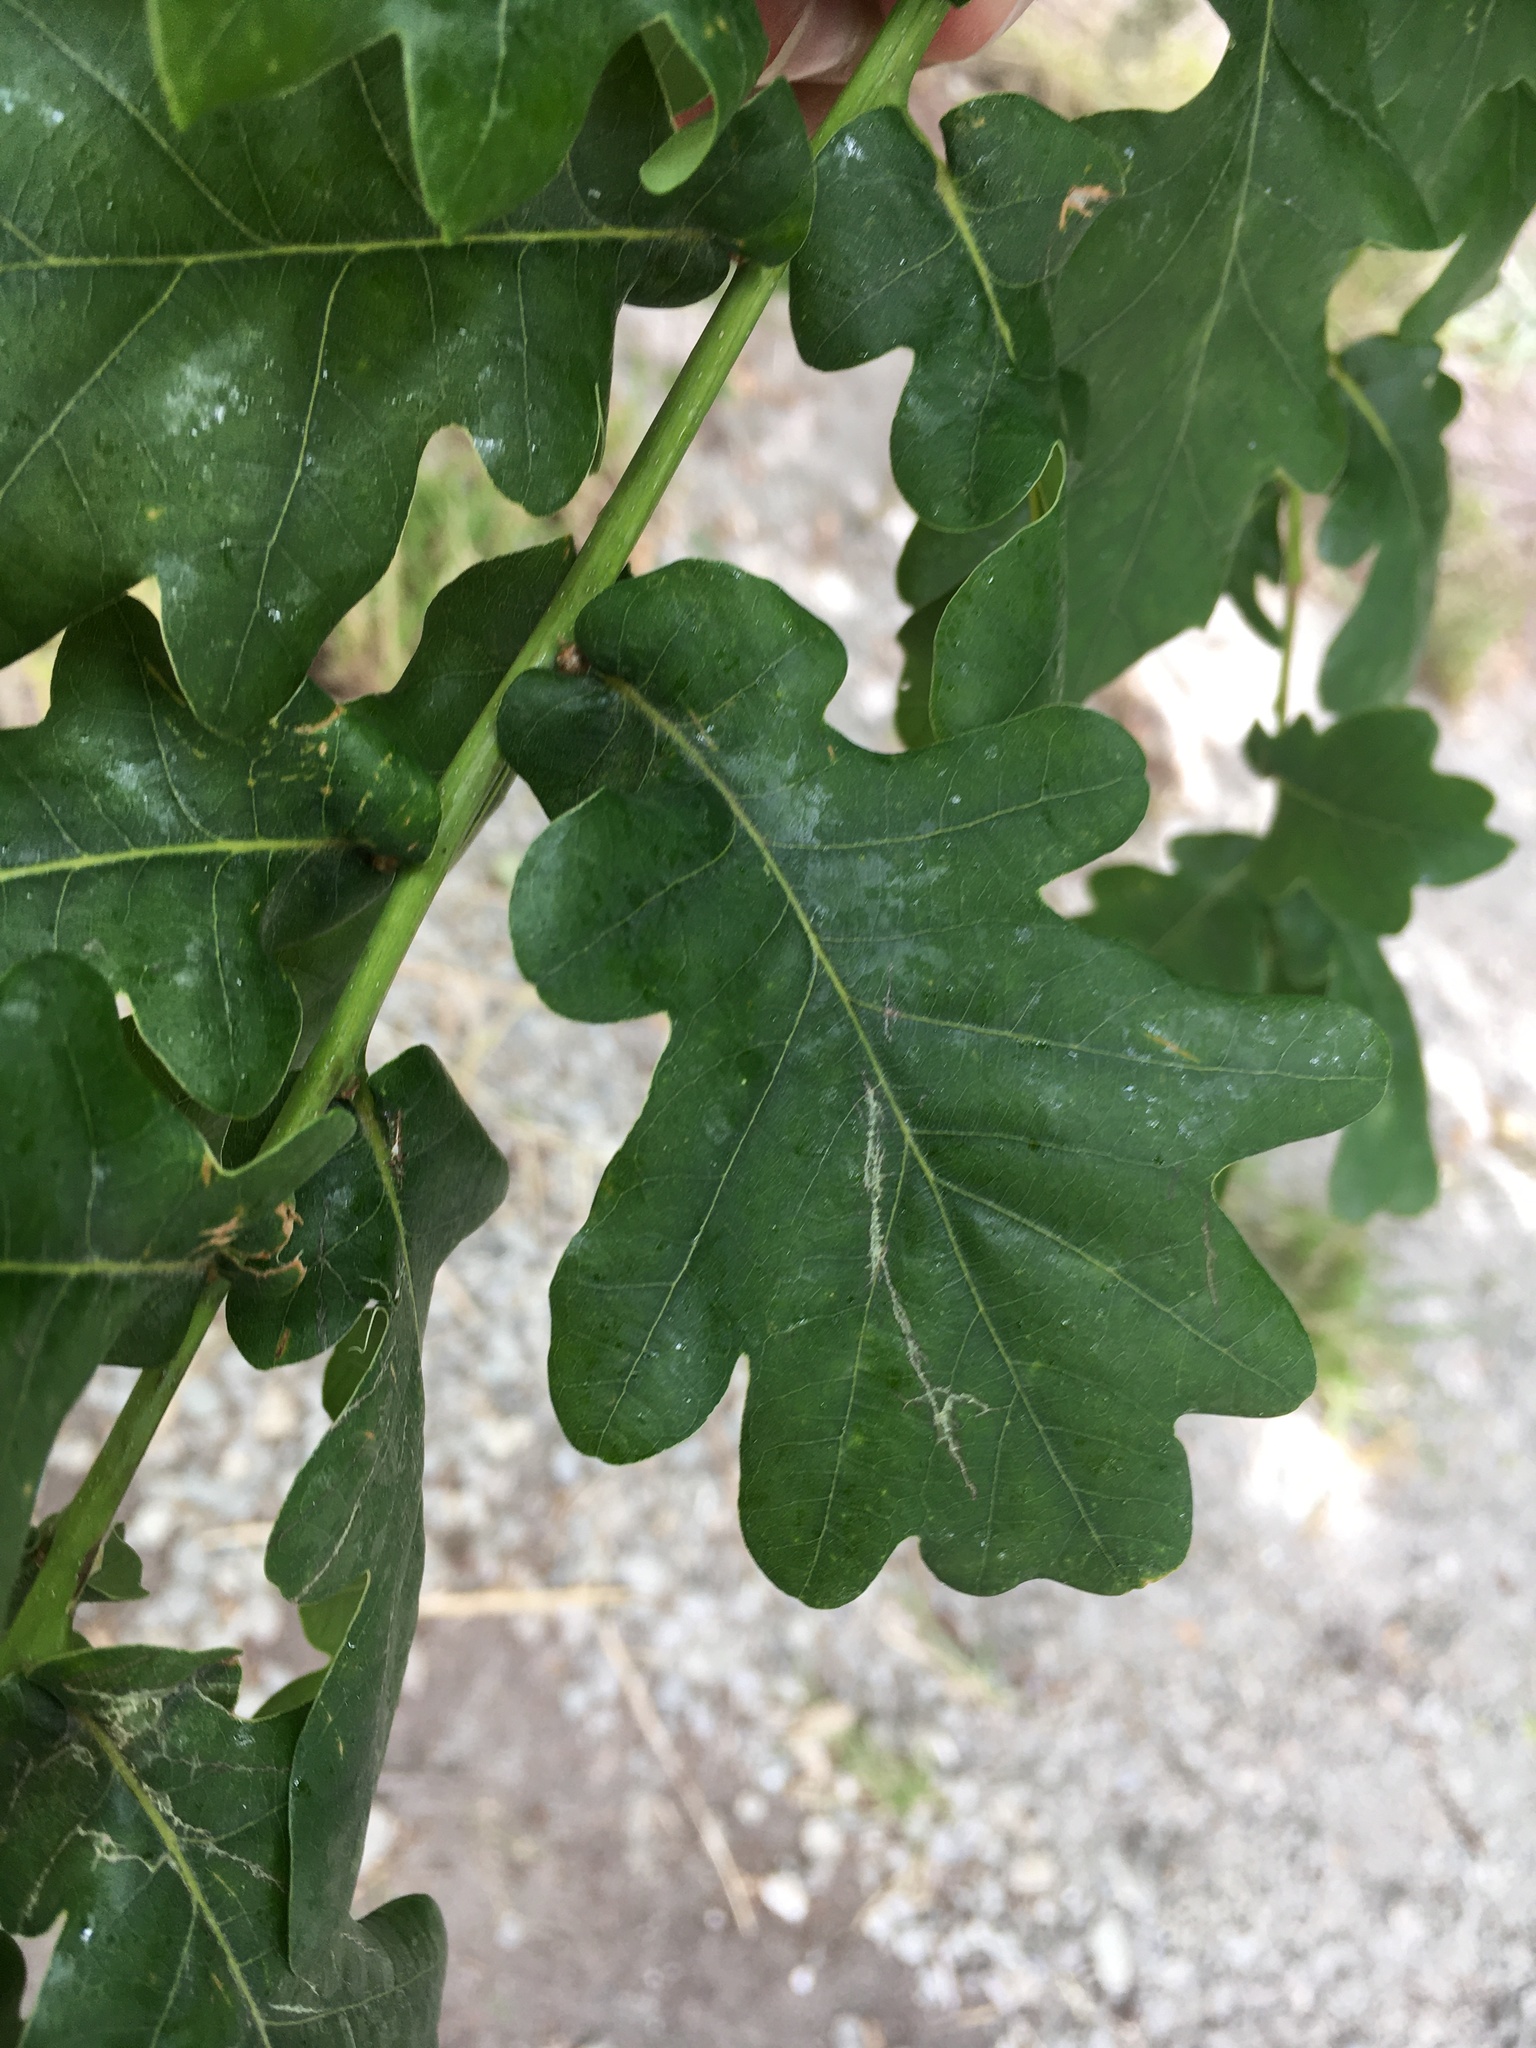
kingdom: Plantae
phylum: Tracheophyta
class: Magnoliopsida
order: Fagales
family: Fagaceae
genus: Quercus
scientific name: Quercus robur
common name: Pedunculate oak
